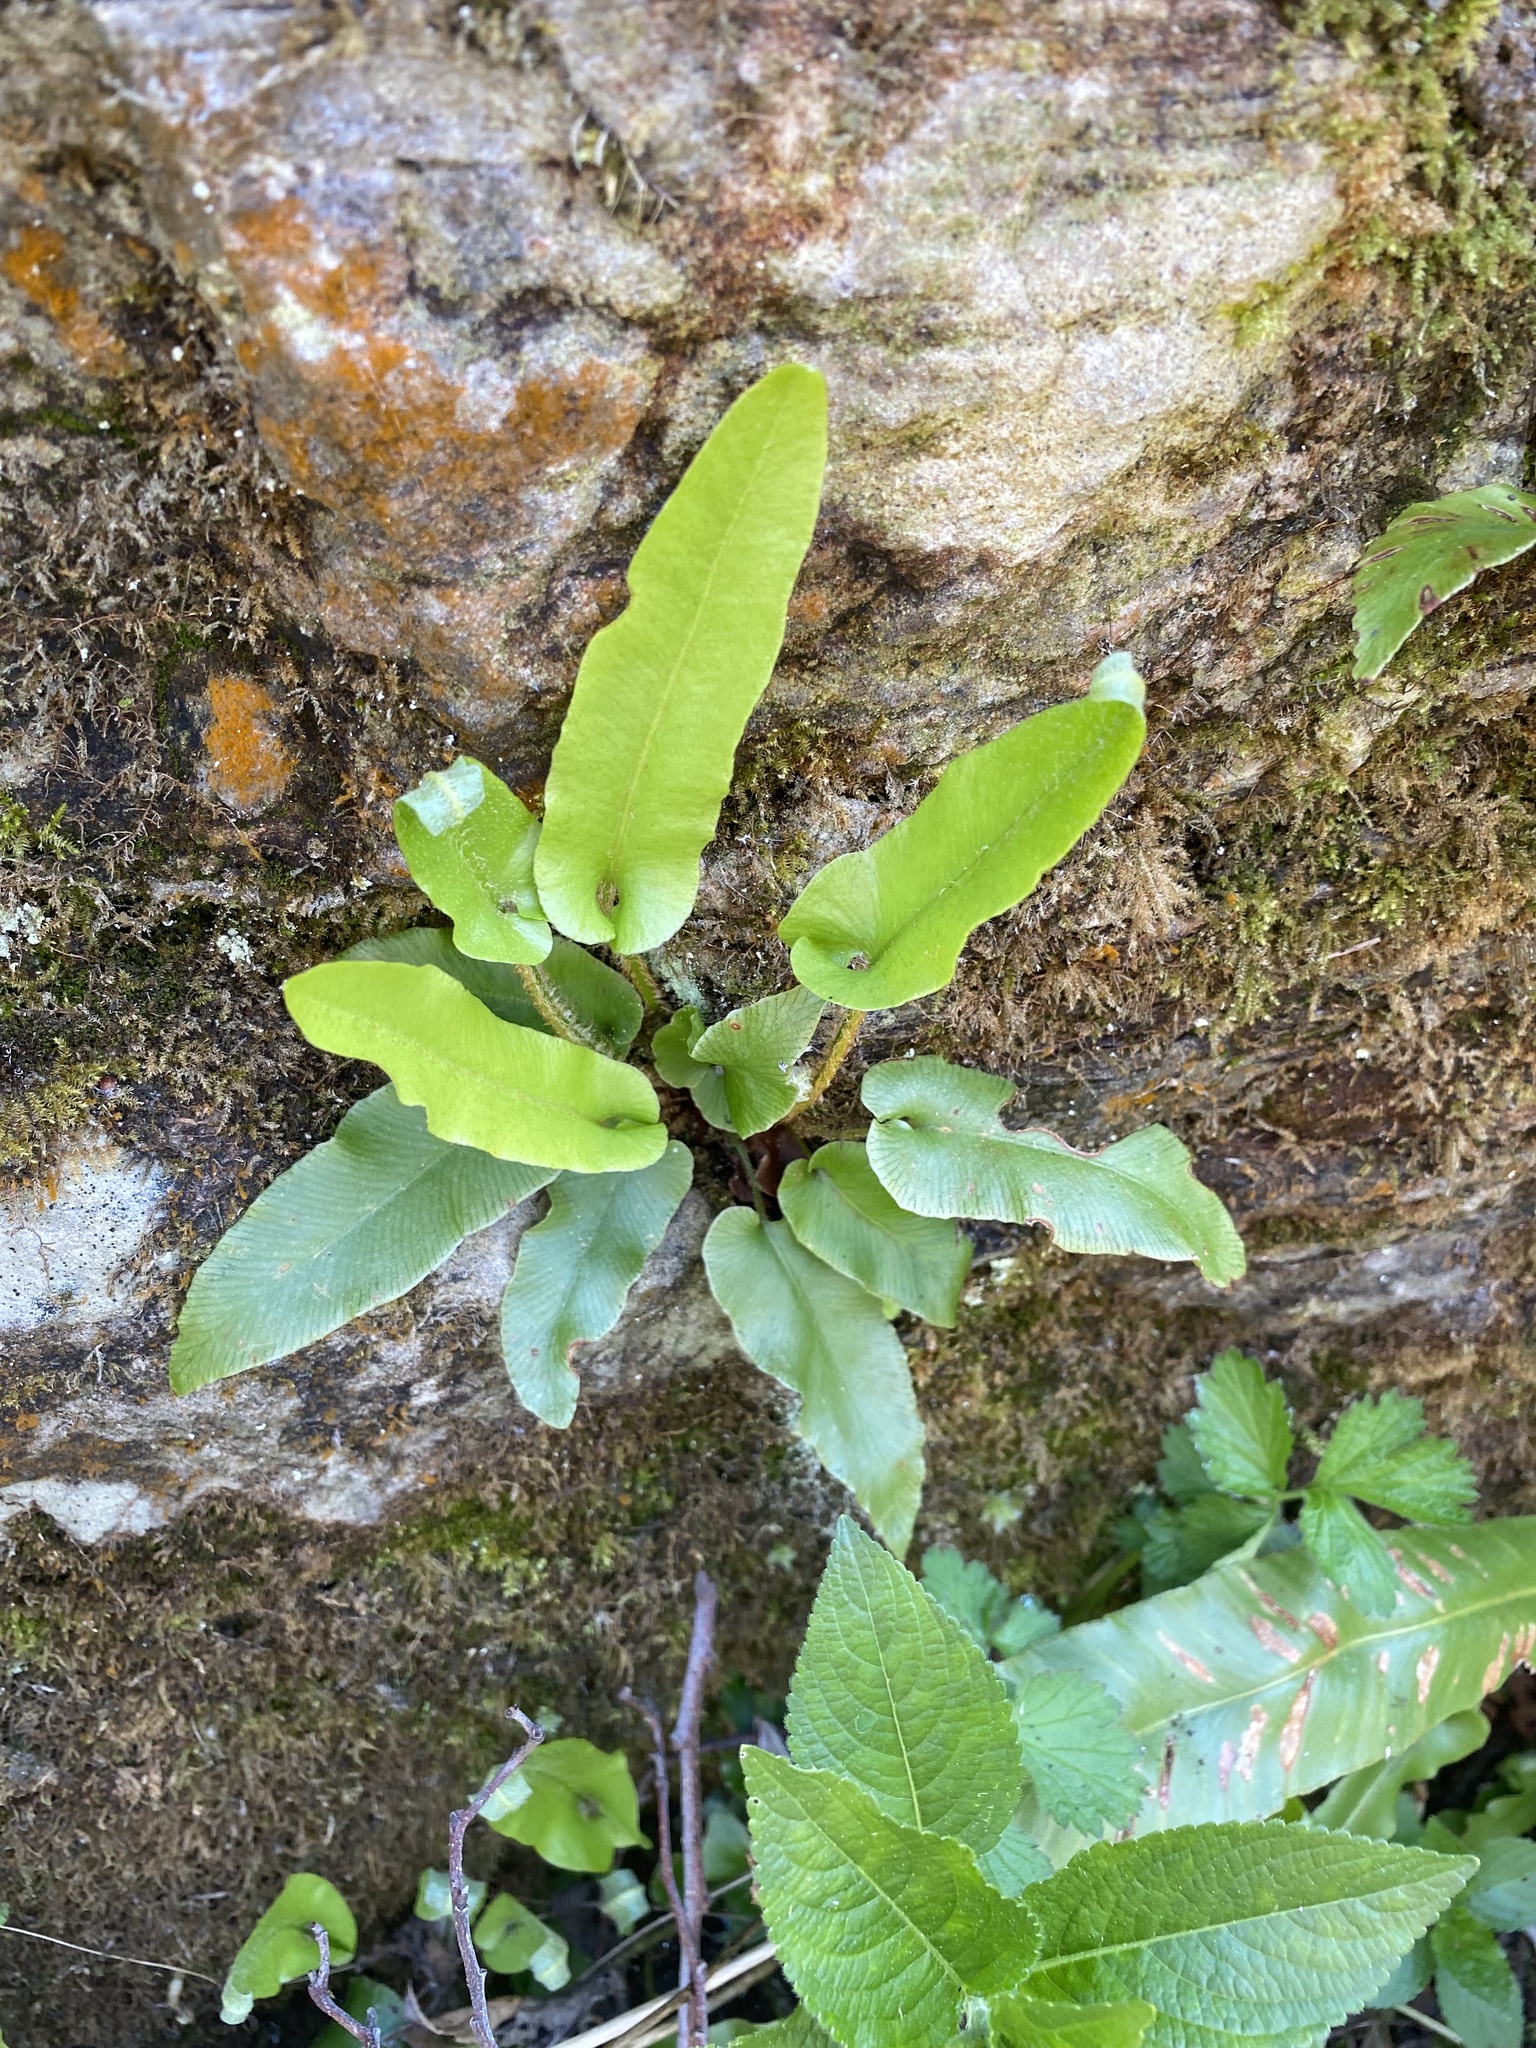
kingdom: Plantae
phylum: Tracheophyta
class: Polypodiopsida
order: Polypodiales
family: Aspleniaceae
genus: Asplenium
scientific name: Asplenium scolopendrium
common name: Hart's-tongue fern
